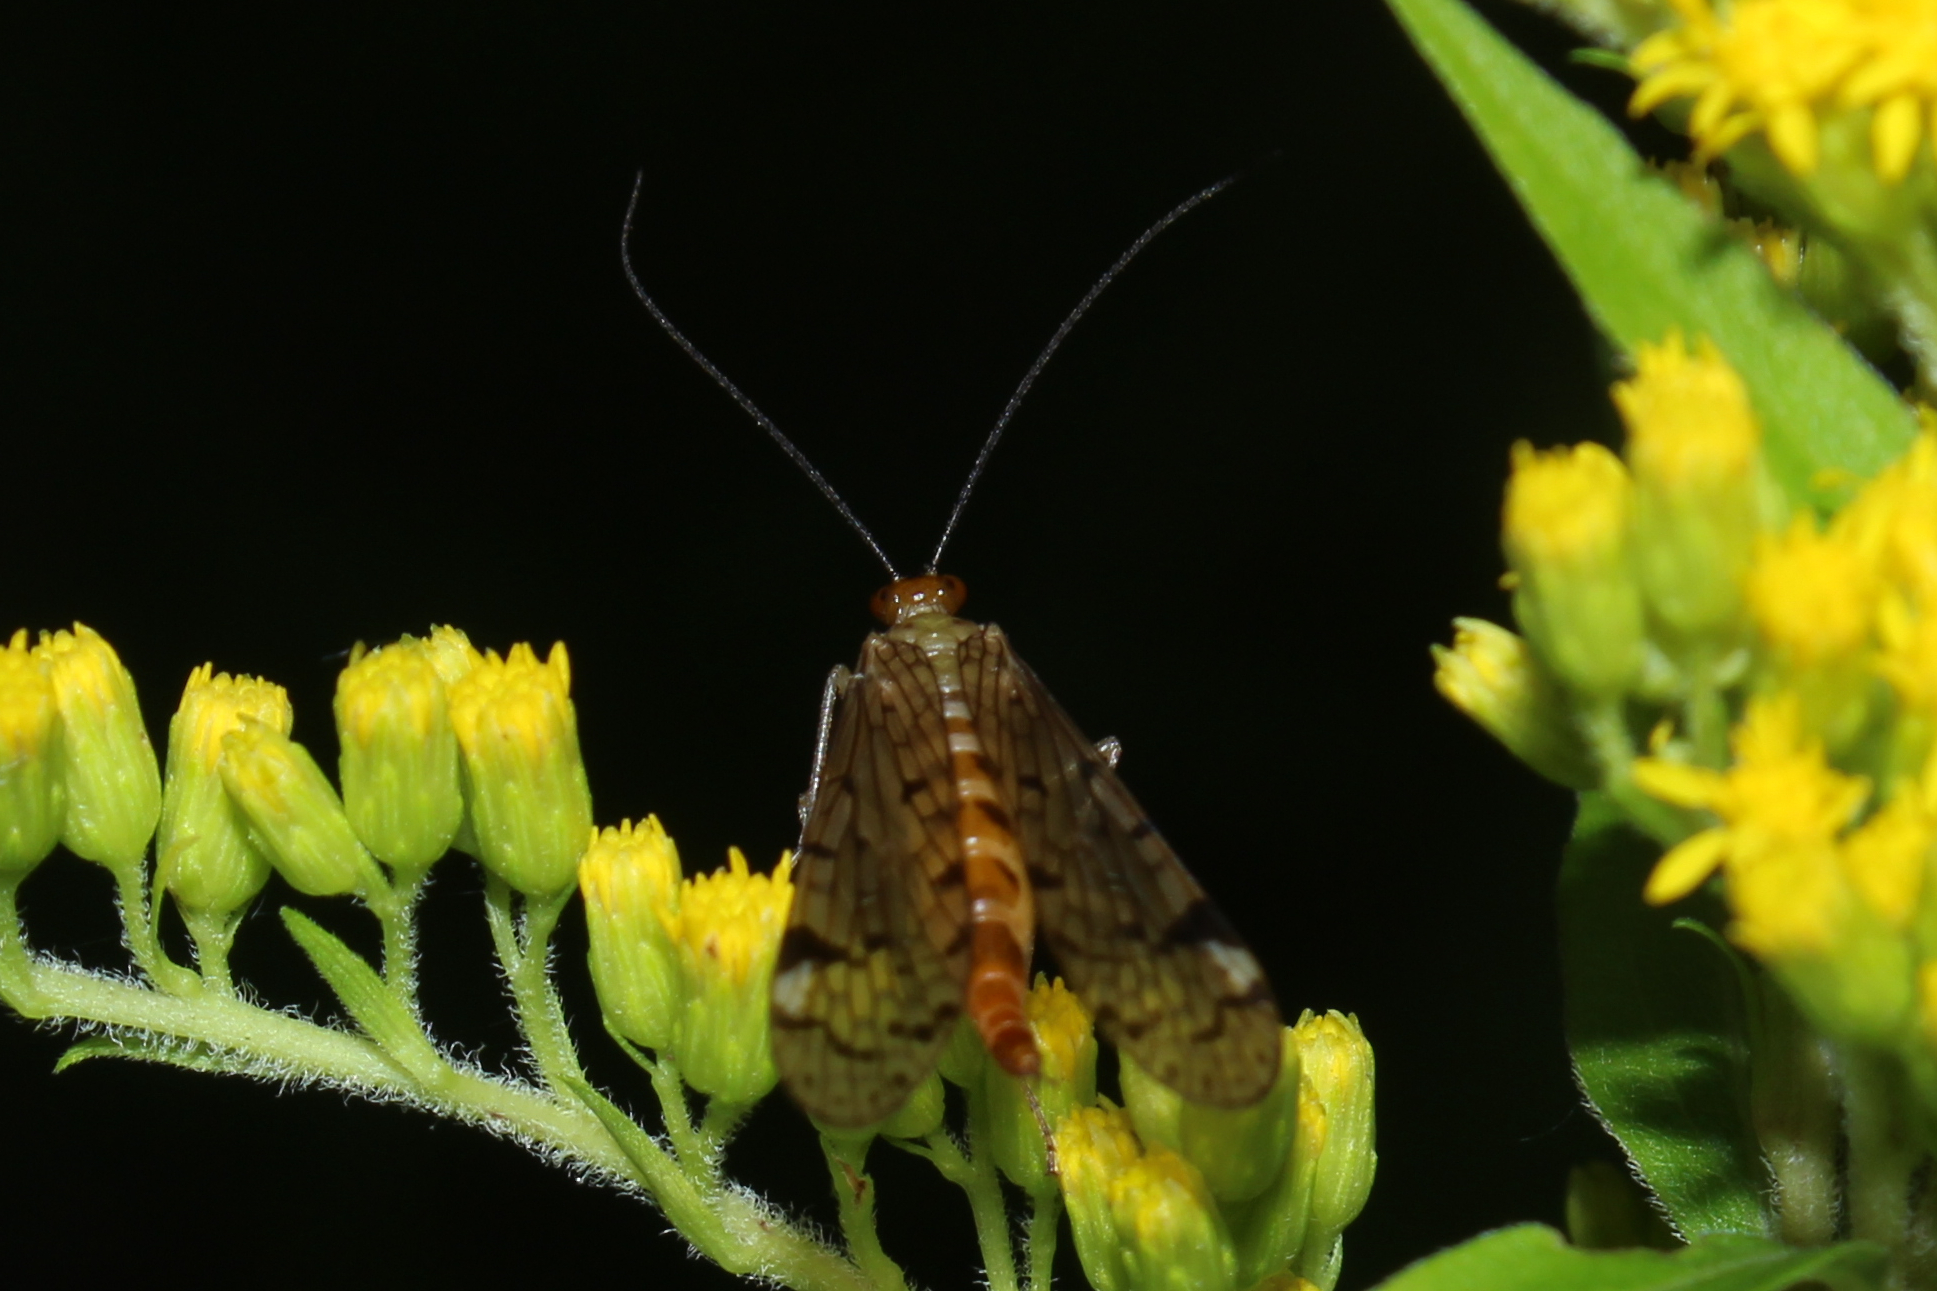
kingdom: Animalia
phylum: Arthropoda
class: Insecta
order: Mecoptera
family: Panorpidae
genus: Panorpa
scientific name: Panorpa
